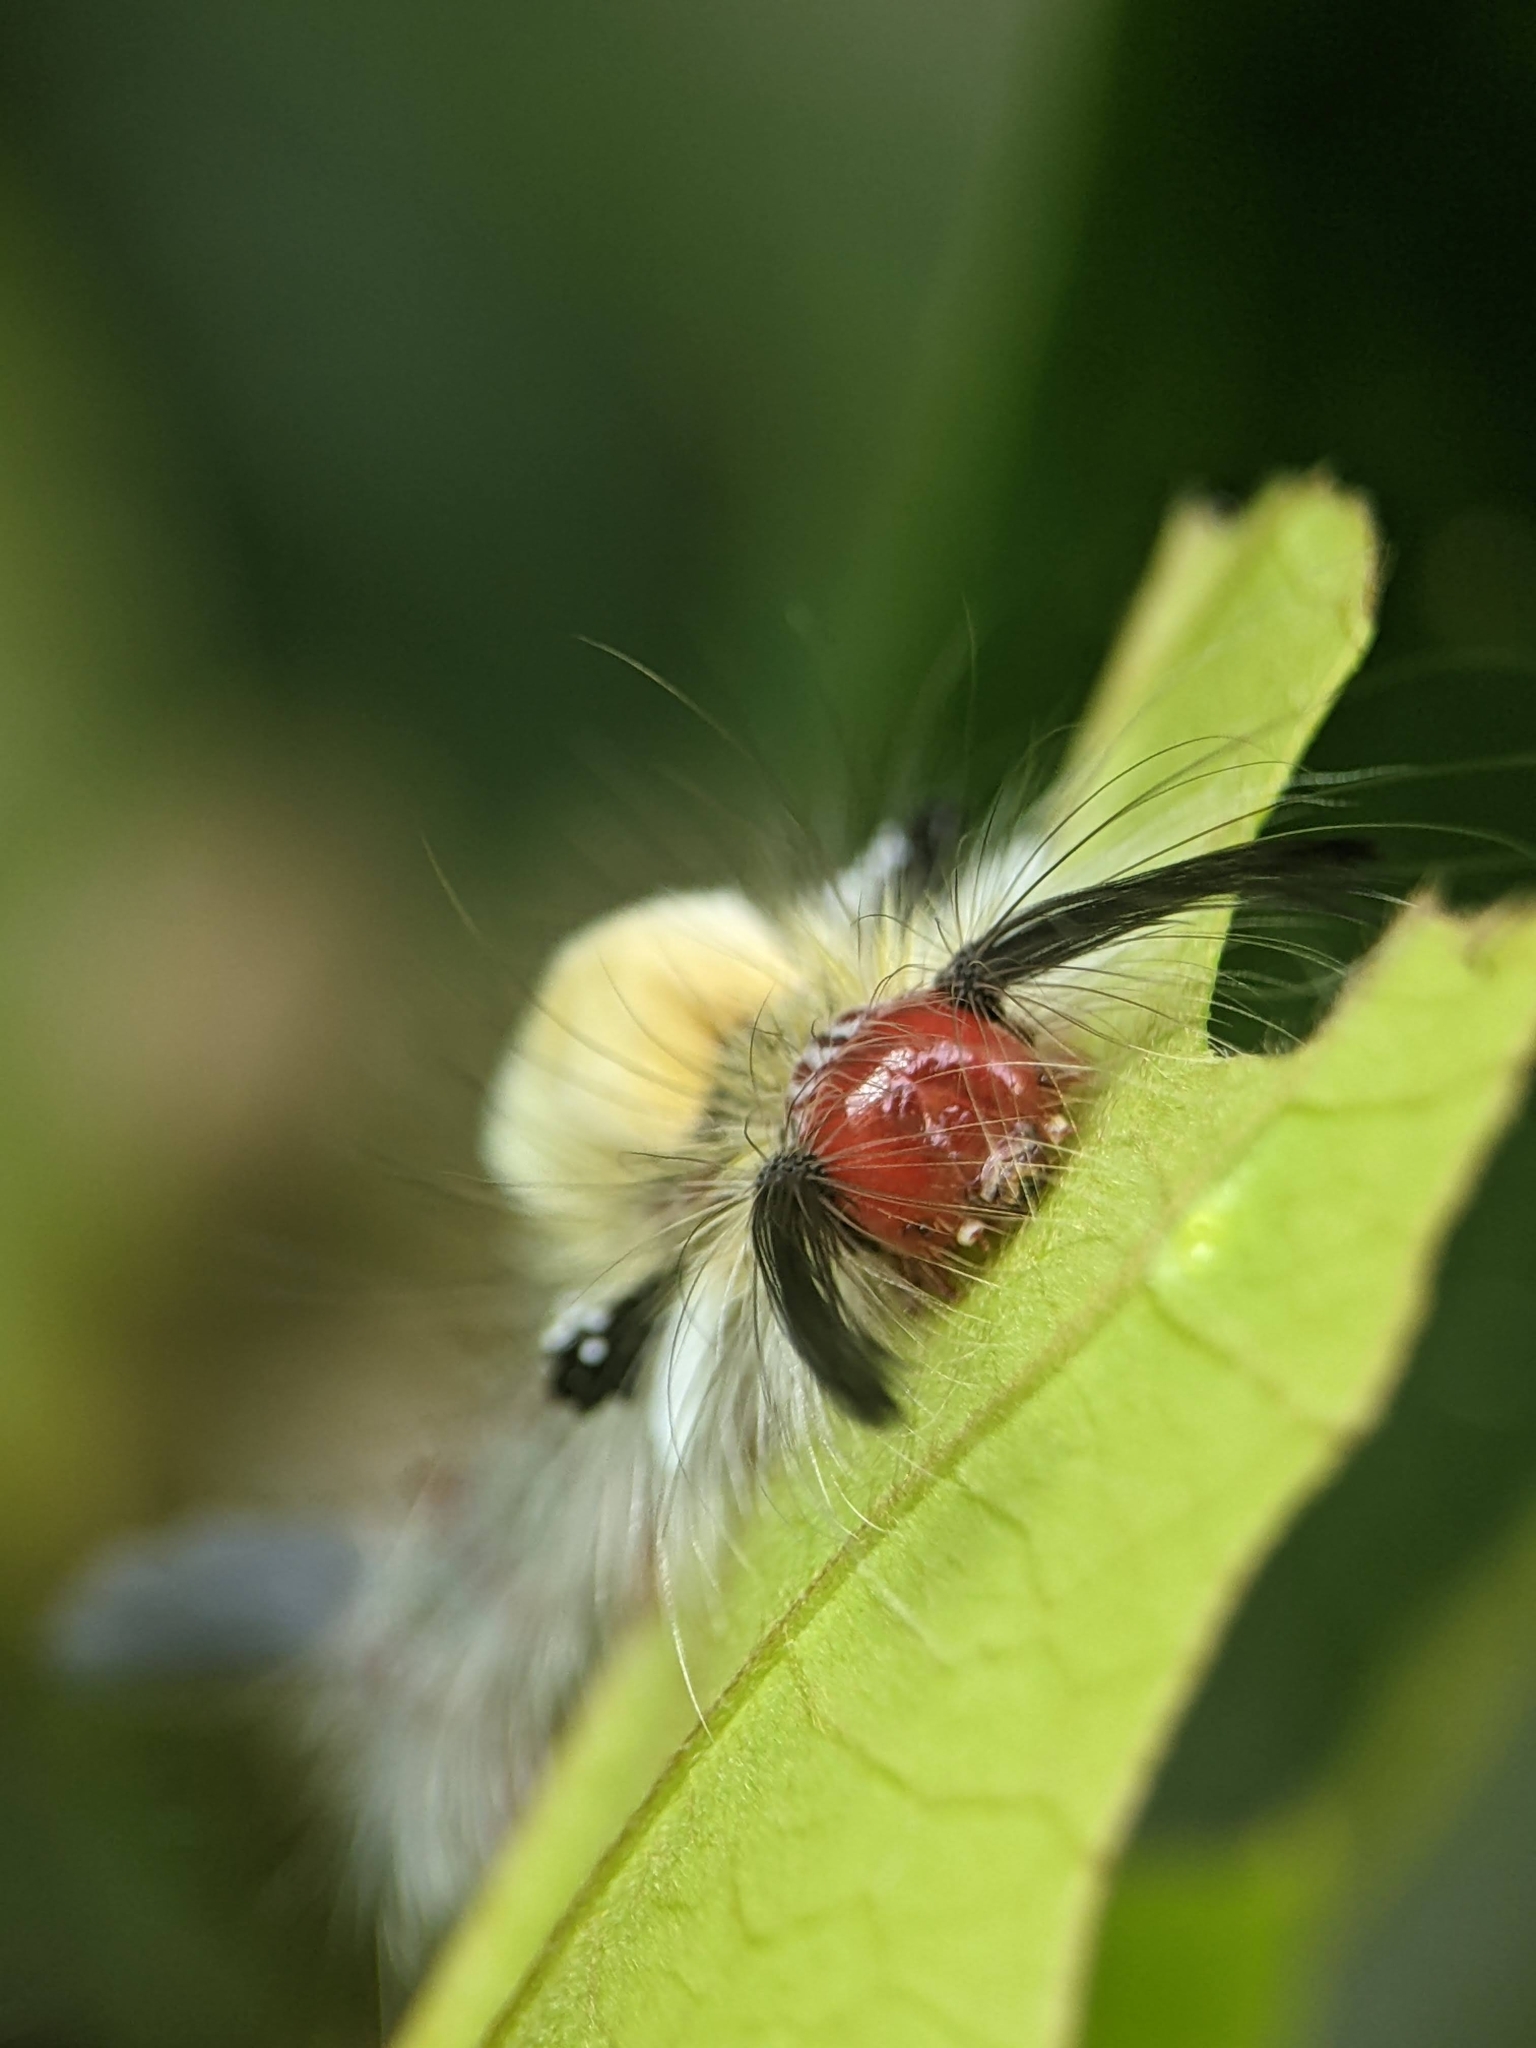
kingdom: Animalia
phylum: Arthropoda
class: Insecta
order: Lepidoptera
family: Erebidae
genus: Olene
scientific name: Olene mendosa
